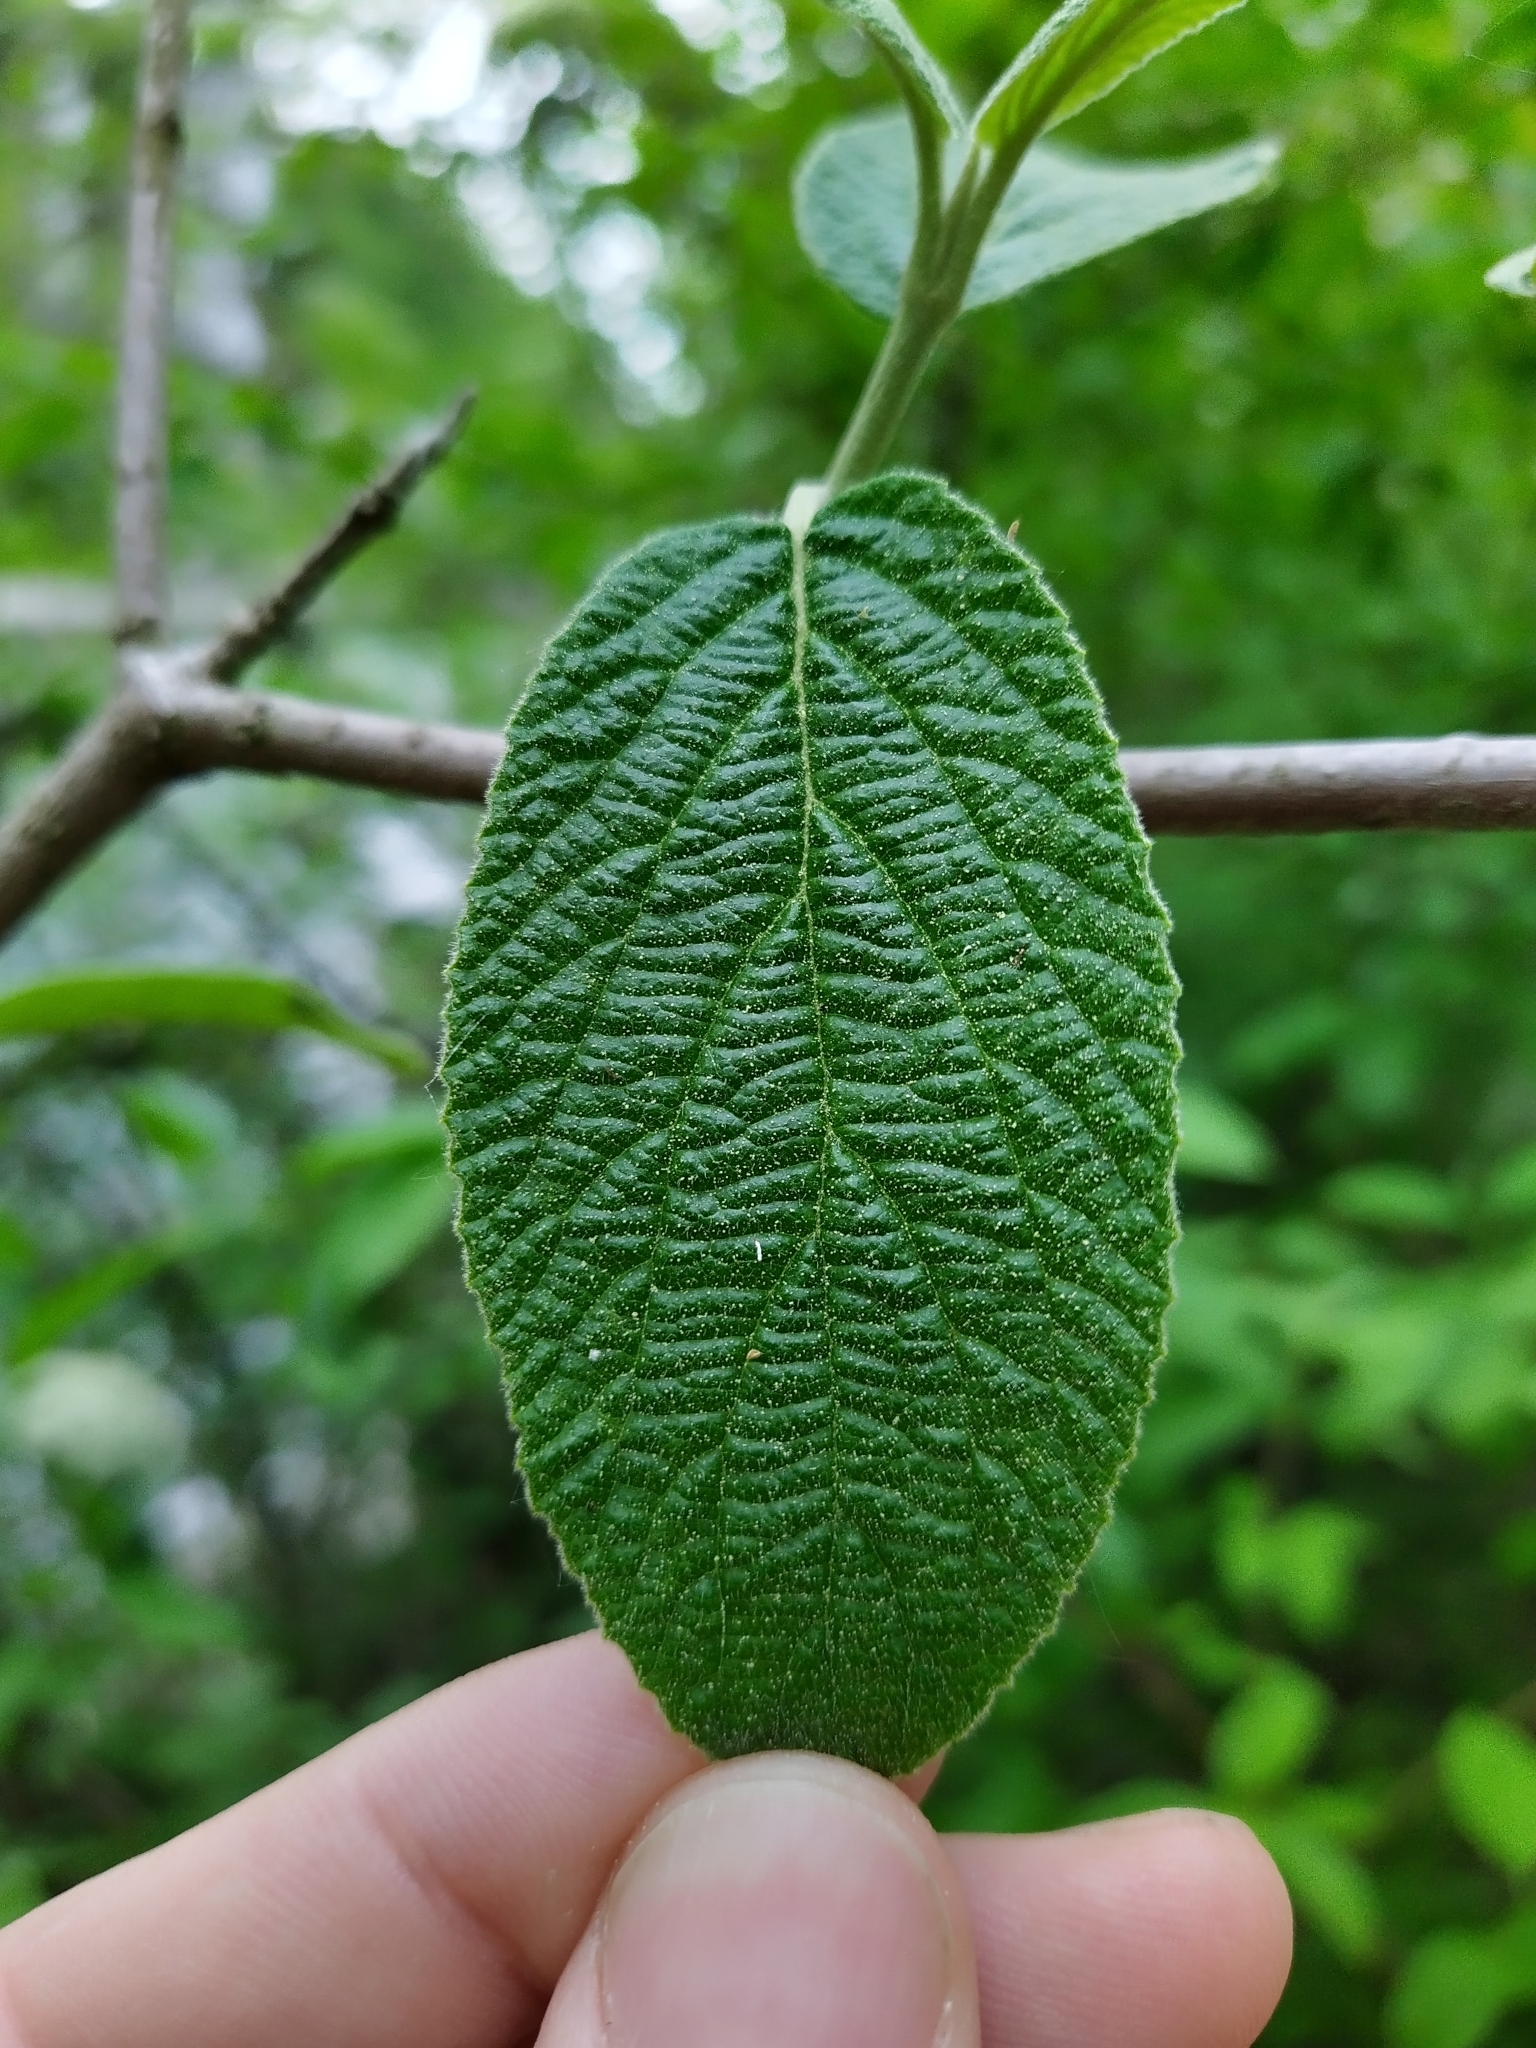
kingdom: Plantae
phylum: Tracheophyta
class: Magnoliopsida
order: Dipsacales
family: Viburnaceae
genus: Viburnum
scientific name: Viburnum lantana
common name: Wayfaring tree
